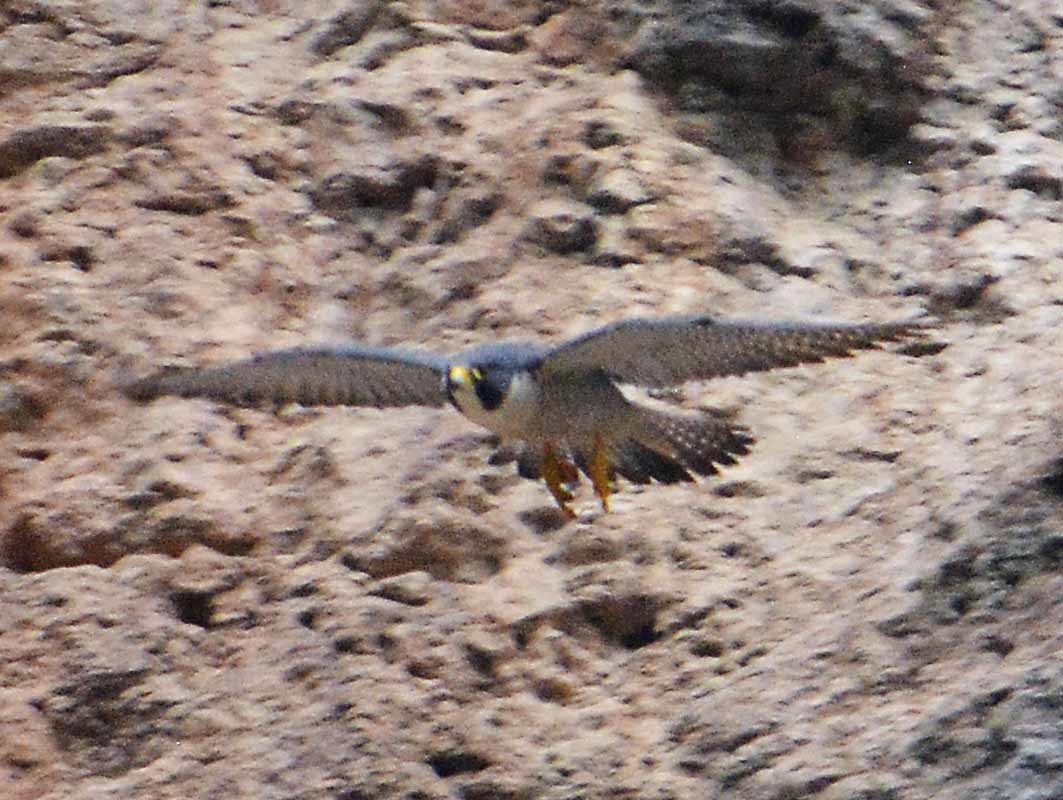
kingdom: Animalia
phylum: Chordata
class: Aves
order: Falconiformes
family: Falconidae
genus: Falco
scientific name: Falco peregrinus
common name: Peregrine falcon
